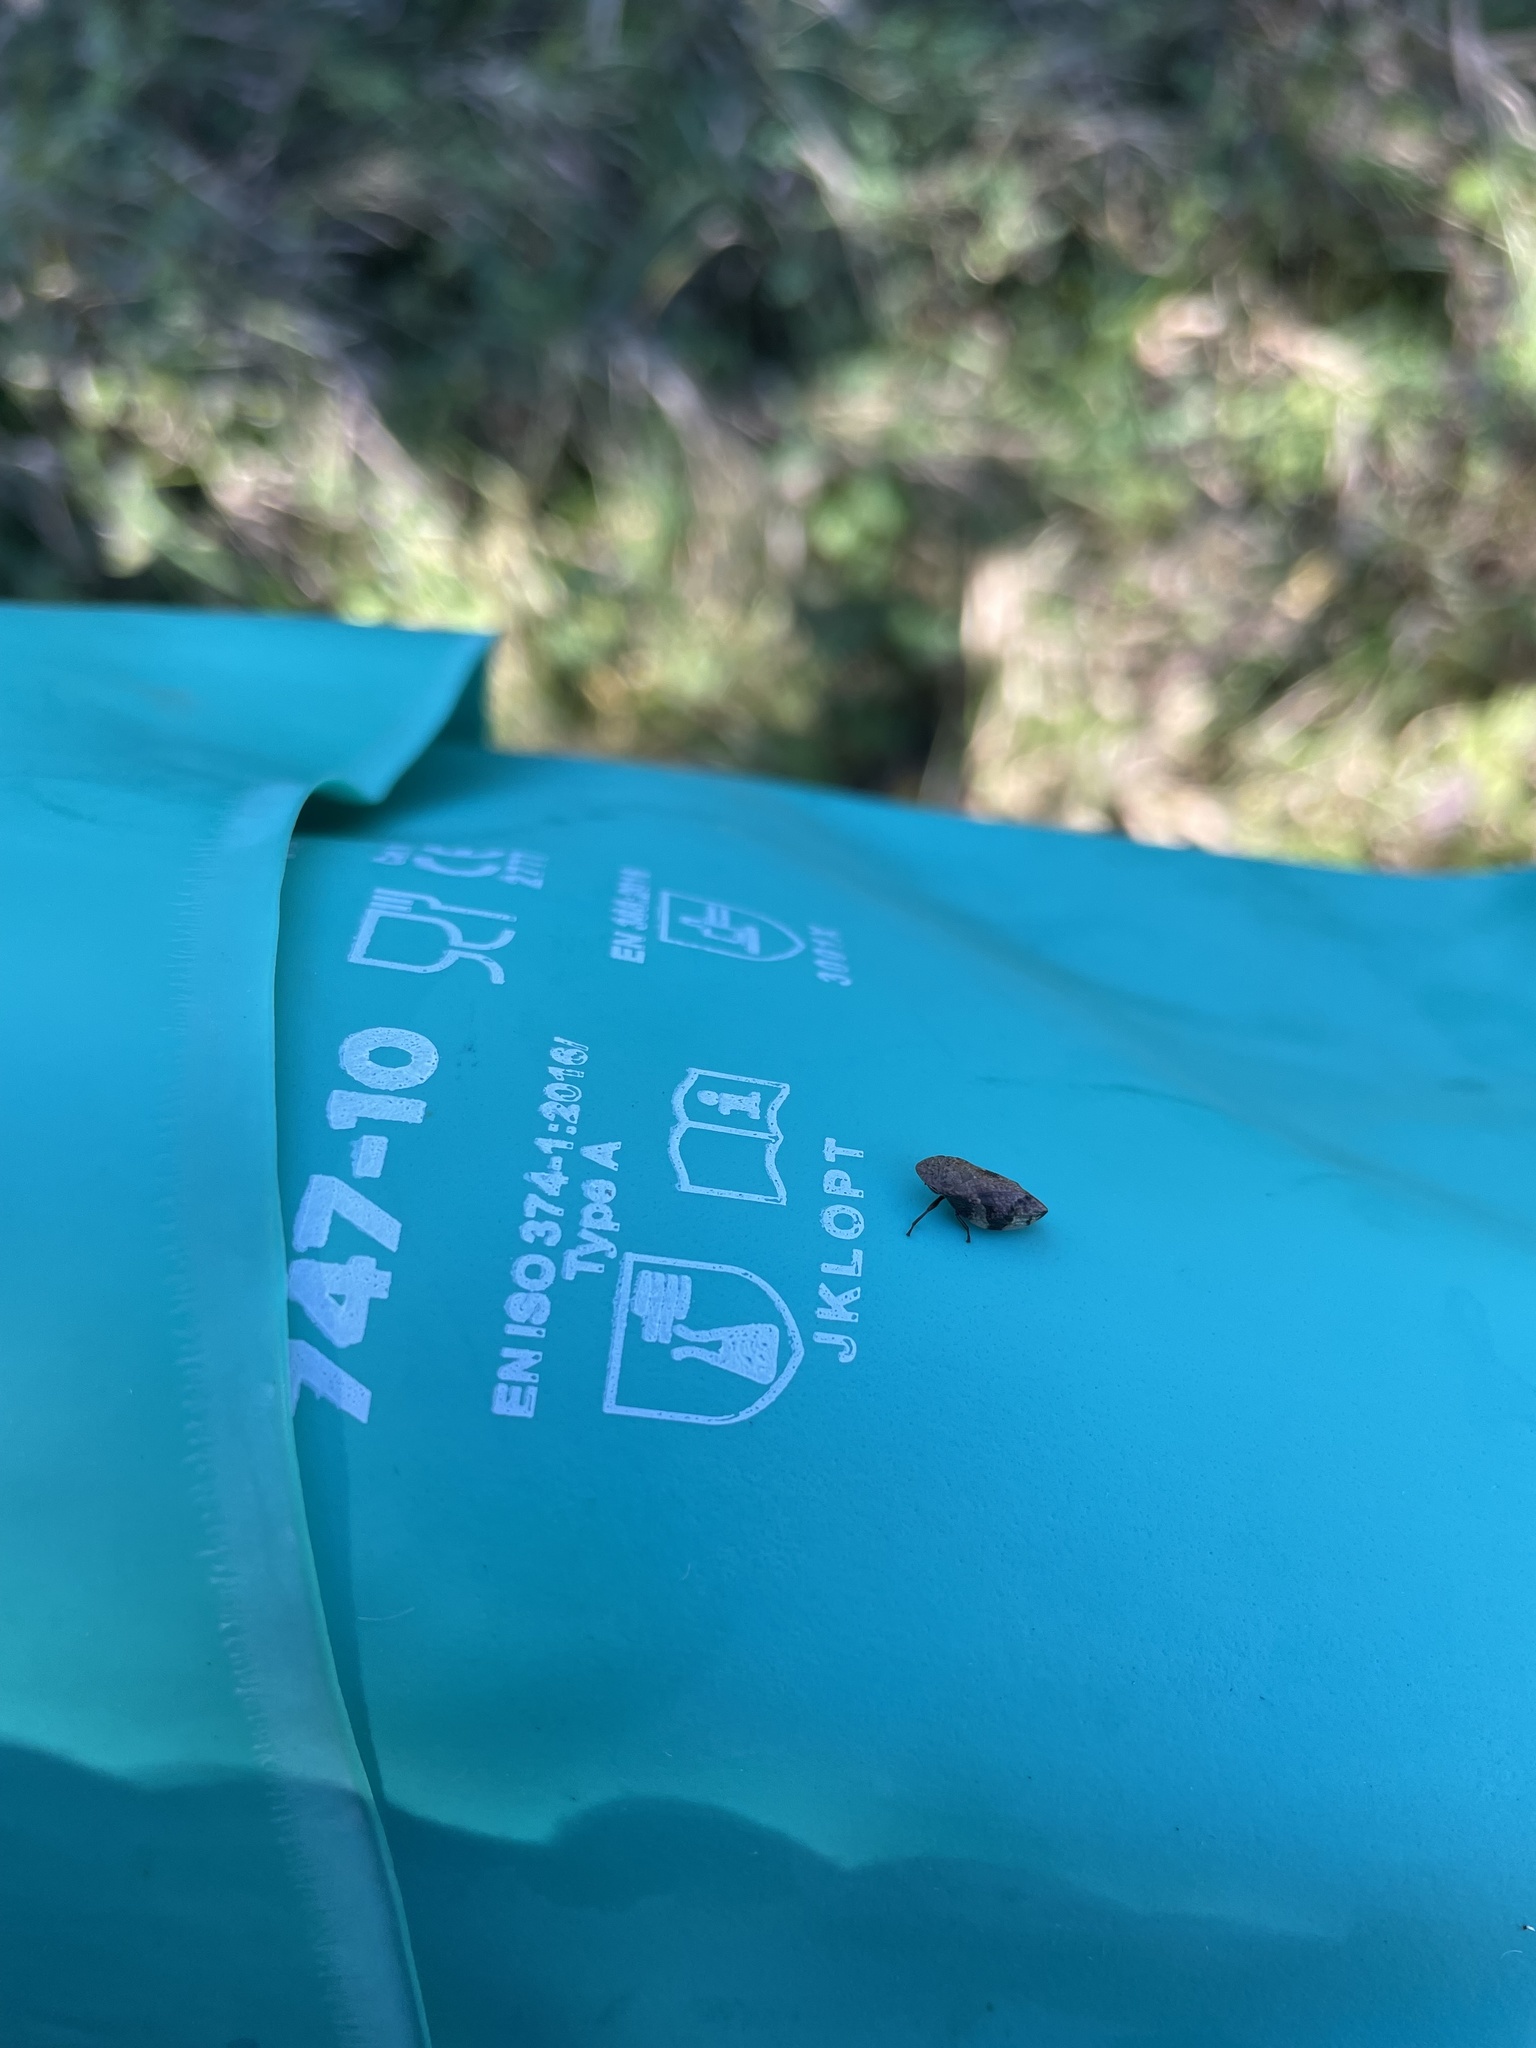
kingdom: Animalia
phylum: Arthropoda
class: Insecta
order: Hemiptera
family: Aphrophoridae
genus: Lepyronia
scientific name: Lepyronia quadrangularis
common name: Diamond-backed spittlebug
